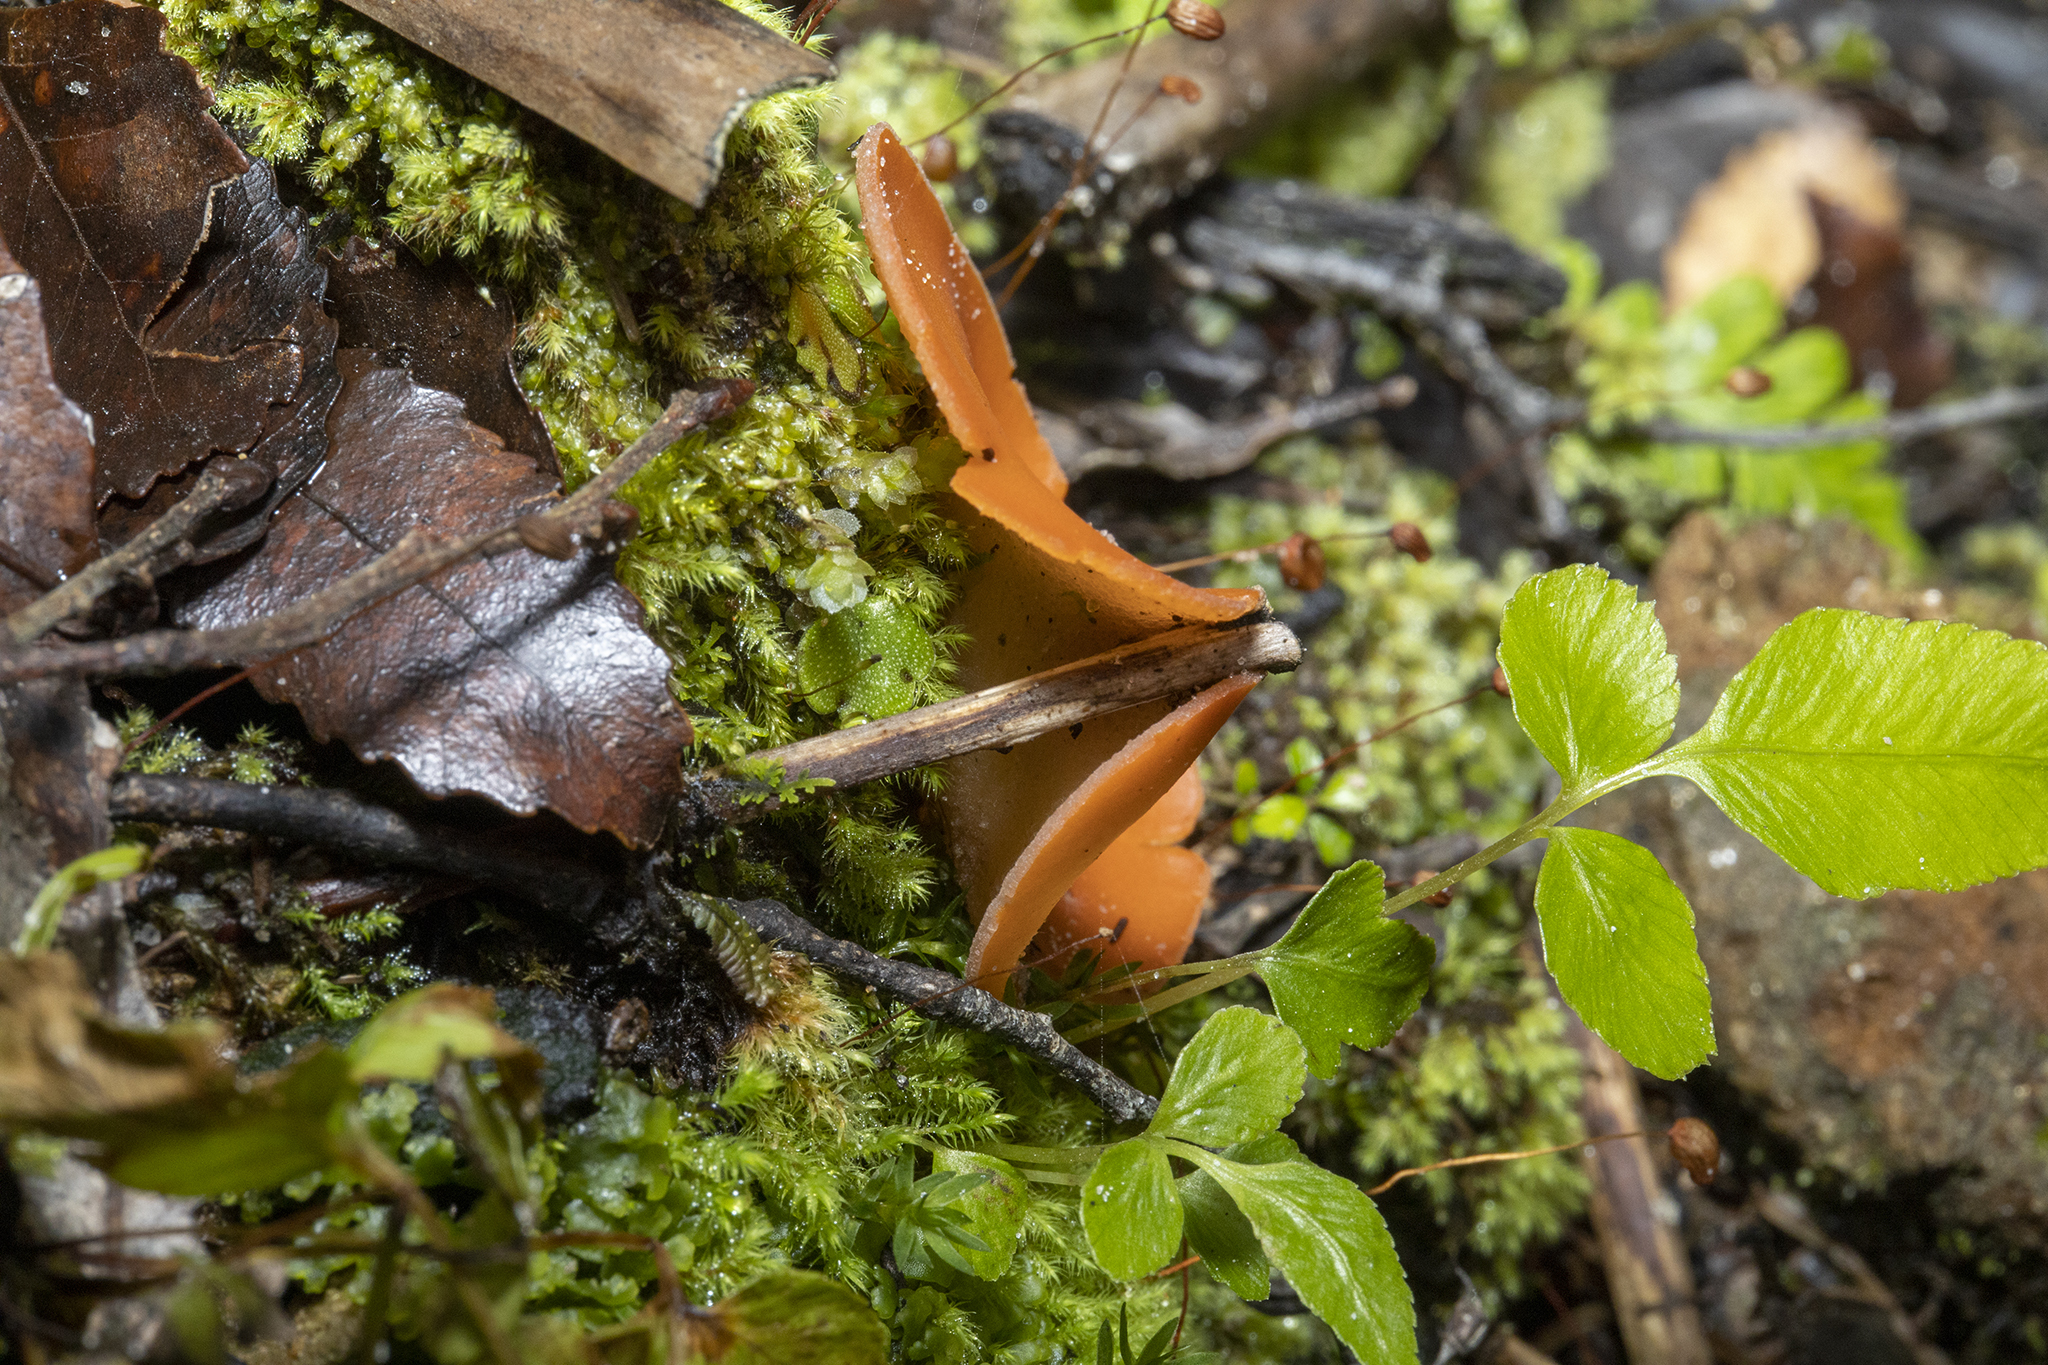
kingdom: Fungi
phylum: Ascomycota
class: Pezizomycetes
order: Pezizales
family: Pyronemataceae
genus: Aleuria
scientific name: Aleuria aurantia
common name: Orange peel fungus
